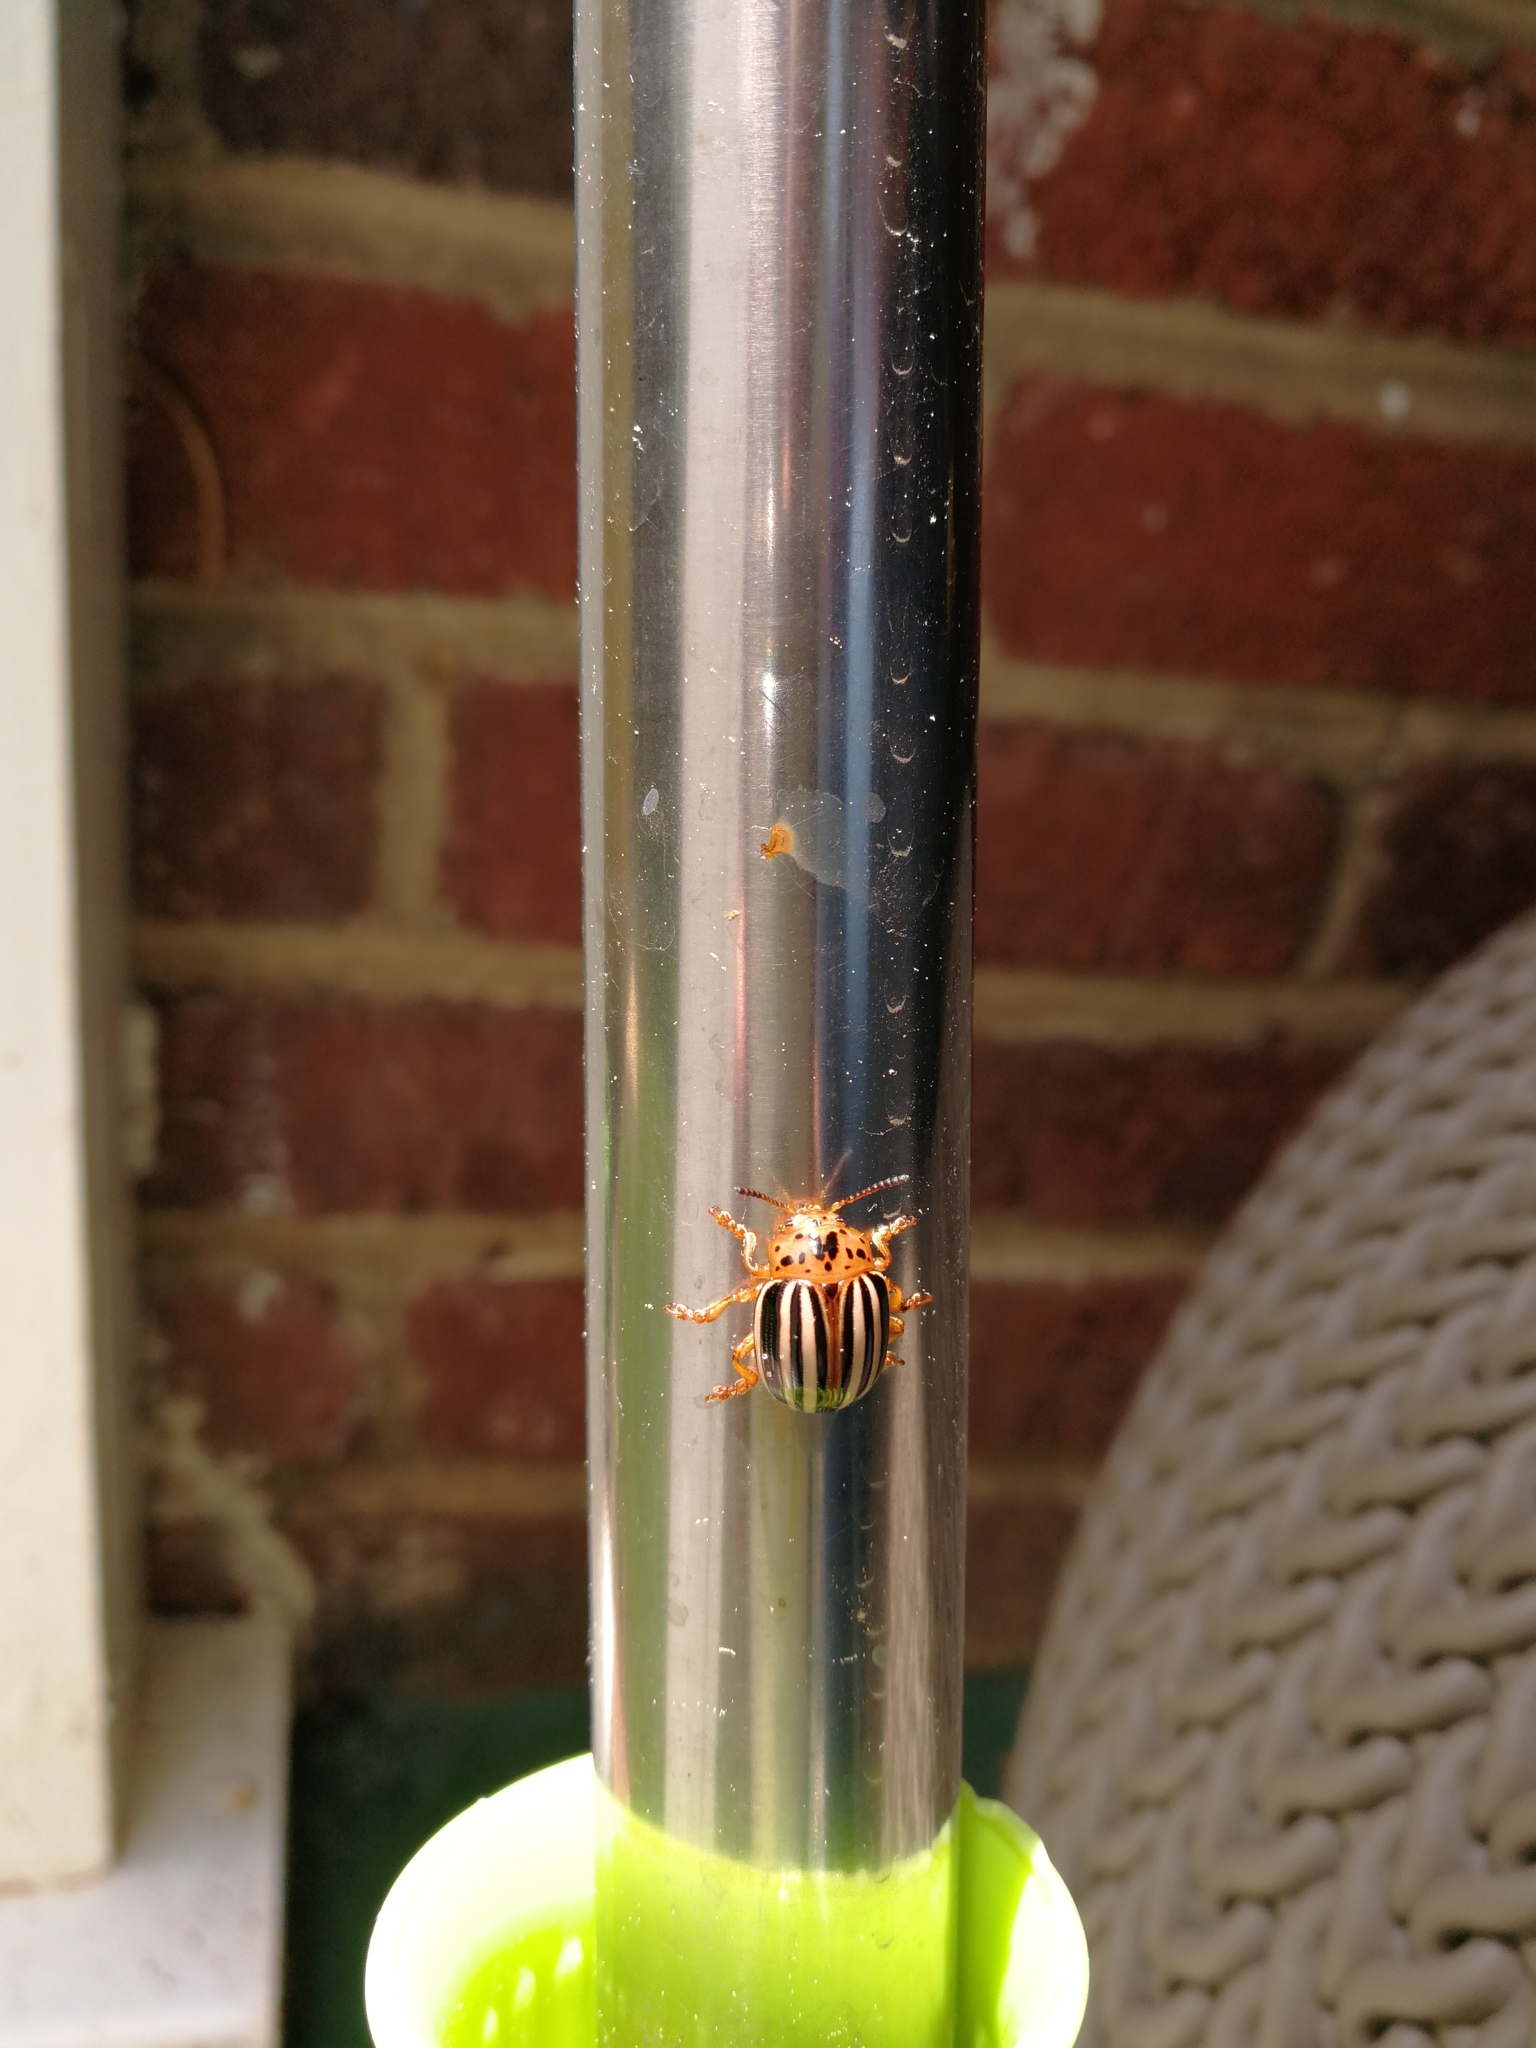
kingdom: Animalia
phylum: Arthropoda
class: Insecta
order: Coleoptera
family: Chrysomelidae
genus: Leptinotarsa
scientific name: Leptinotarsa juncta
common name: False potato beetle
